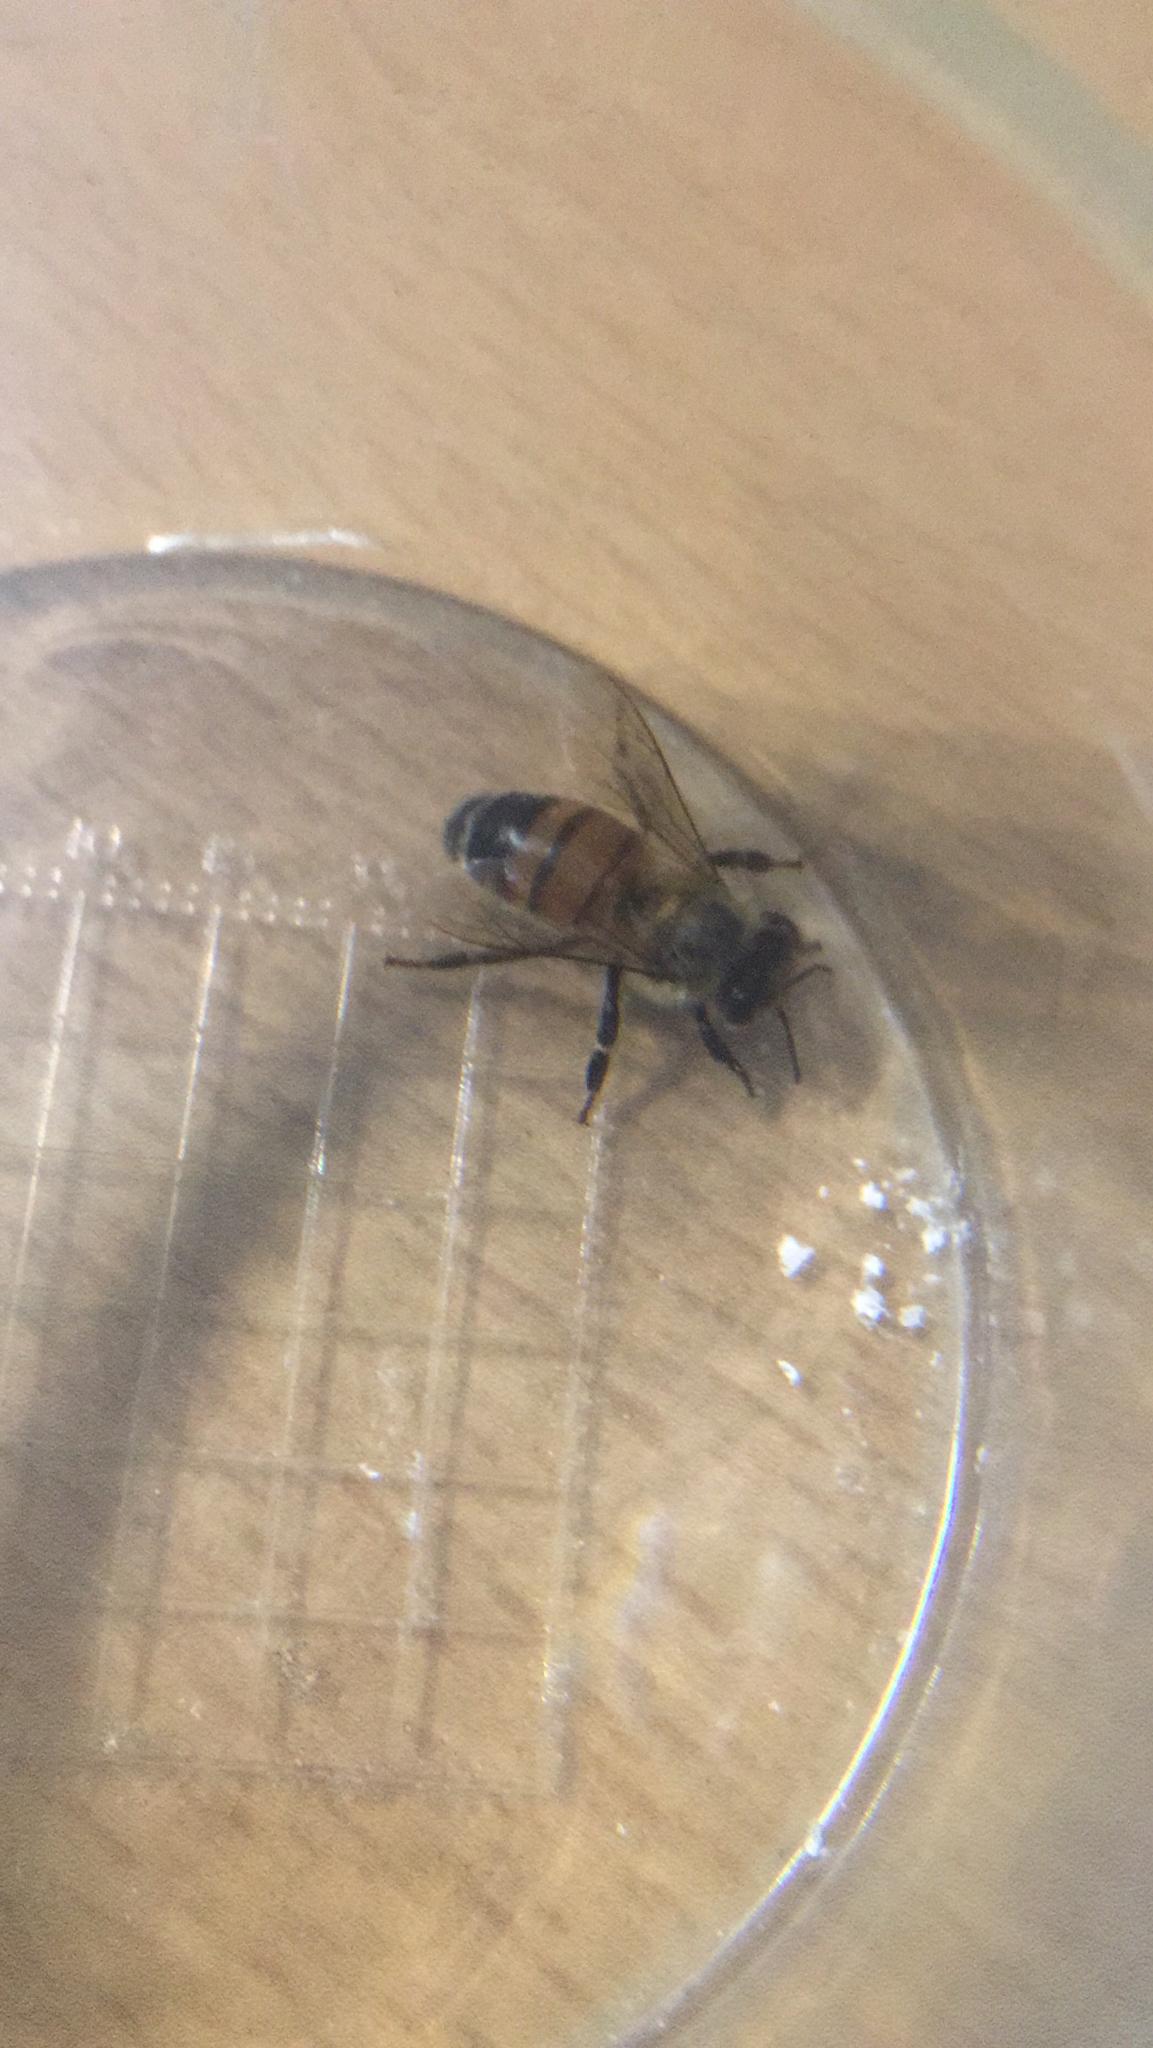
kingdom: Animalia
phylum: Arthropoda
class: Insecta
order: Hymenoptera
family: Apidae
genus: Apis
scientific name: Apis mellifera
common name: Honey bee
